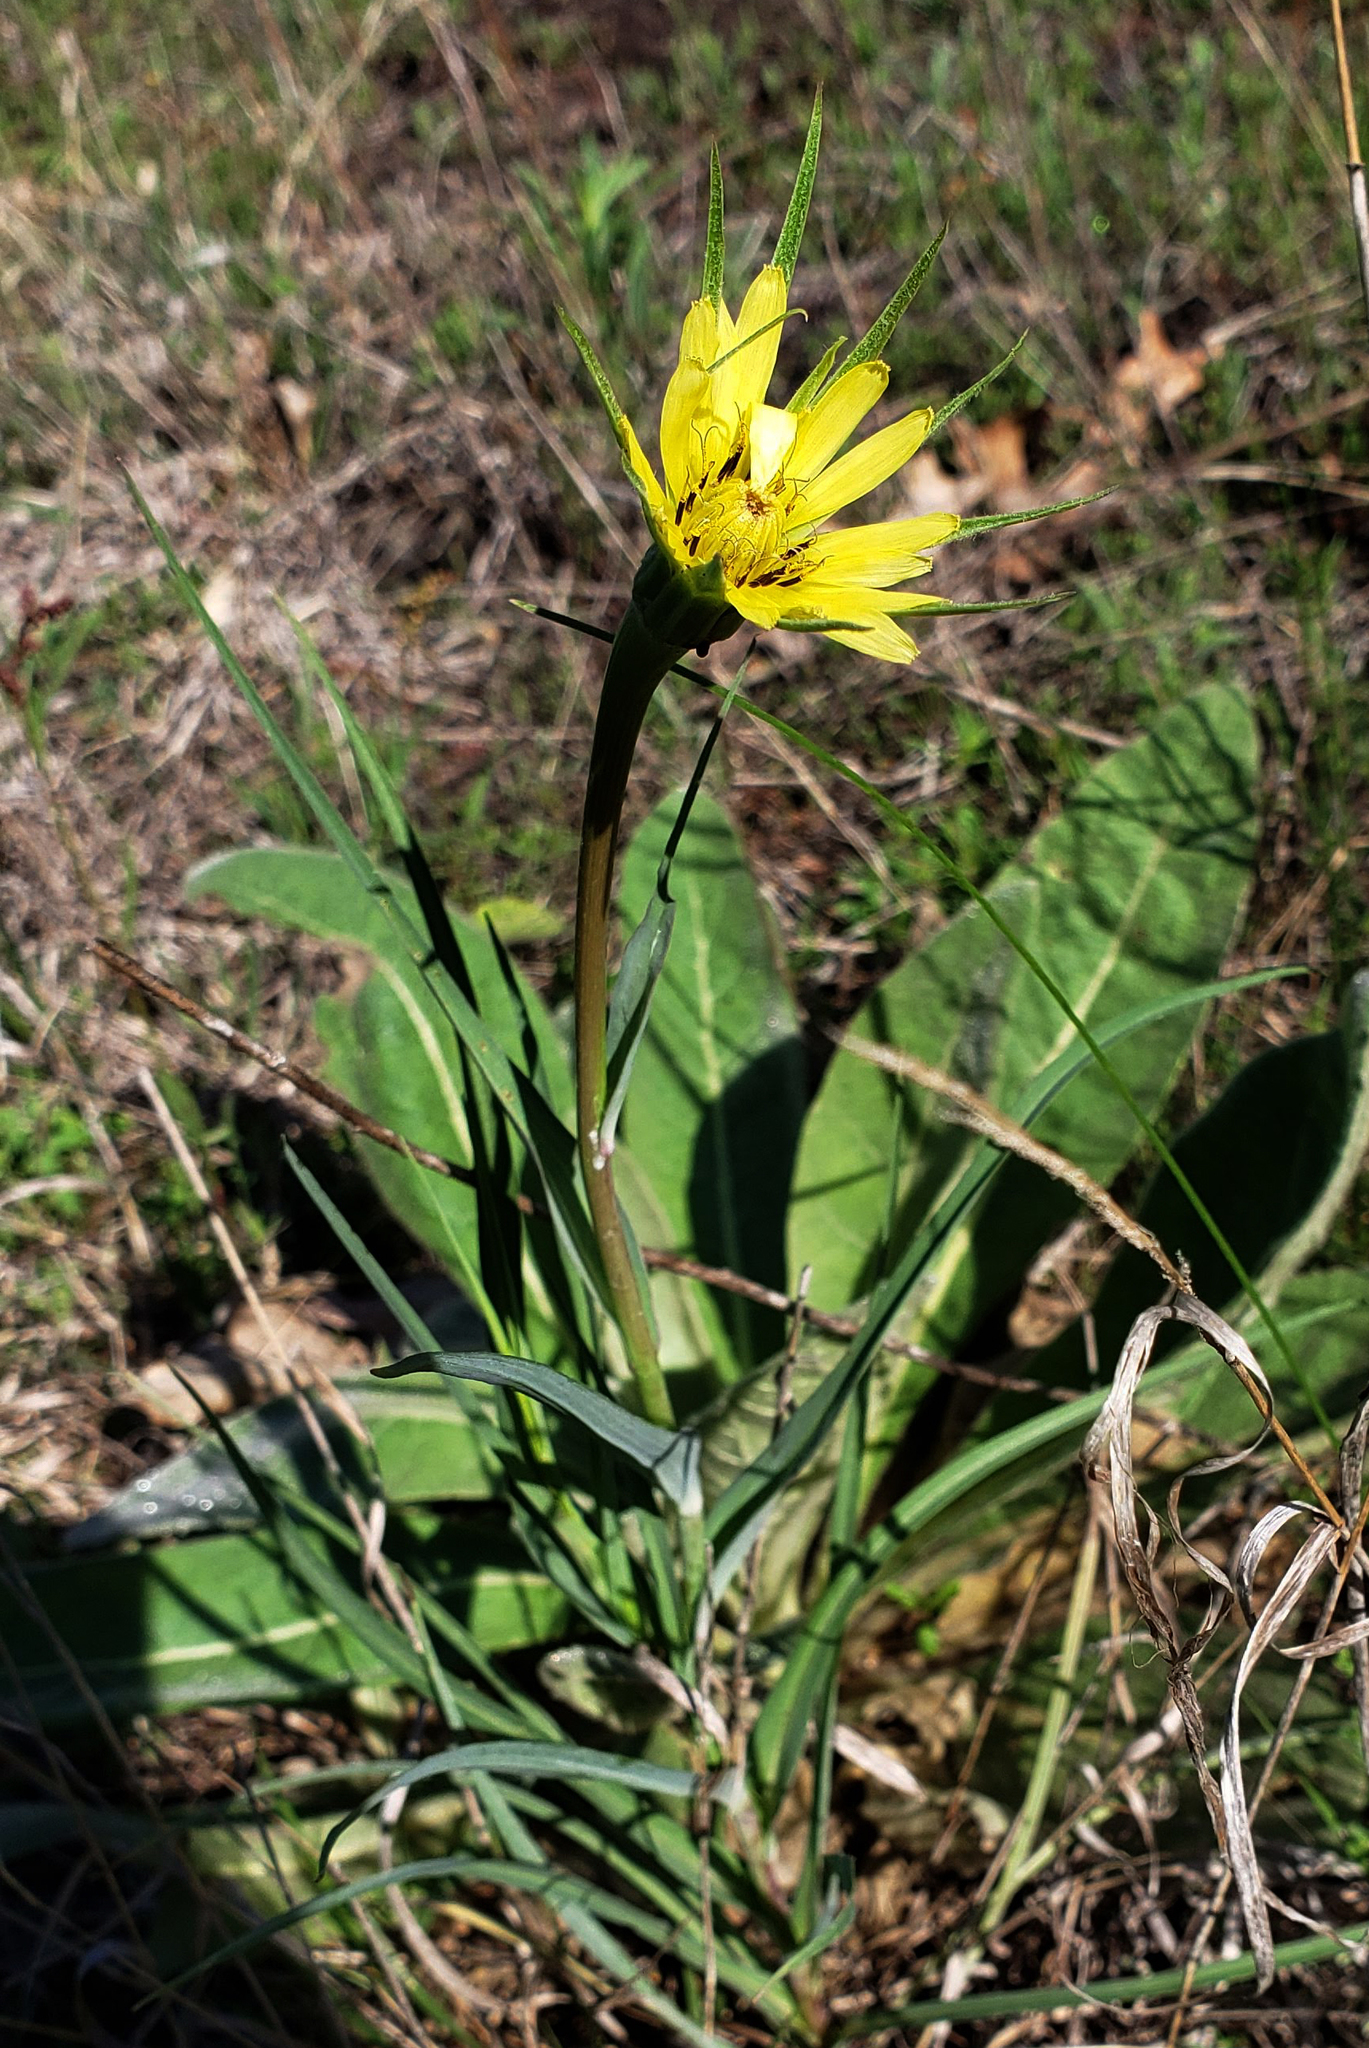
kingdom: Plantae
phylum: Tracheophyta
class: Magnoliopsida
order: Asterales
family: Asteraceae
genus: Tragopogon
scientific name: Tragopogon dubius
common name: Yellow salsify
